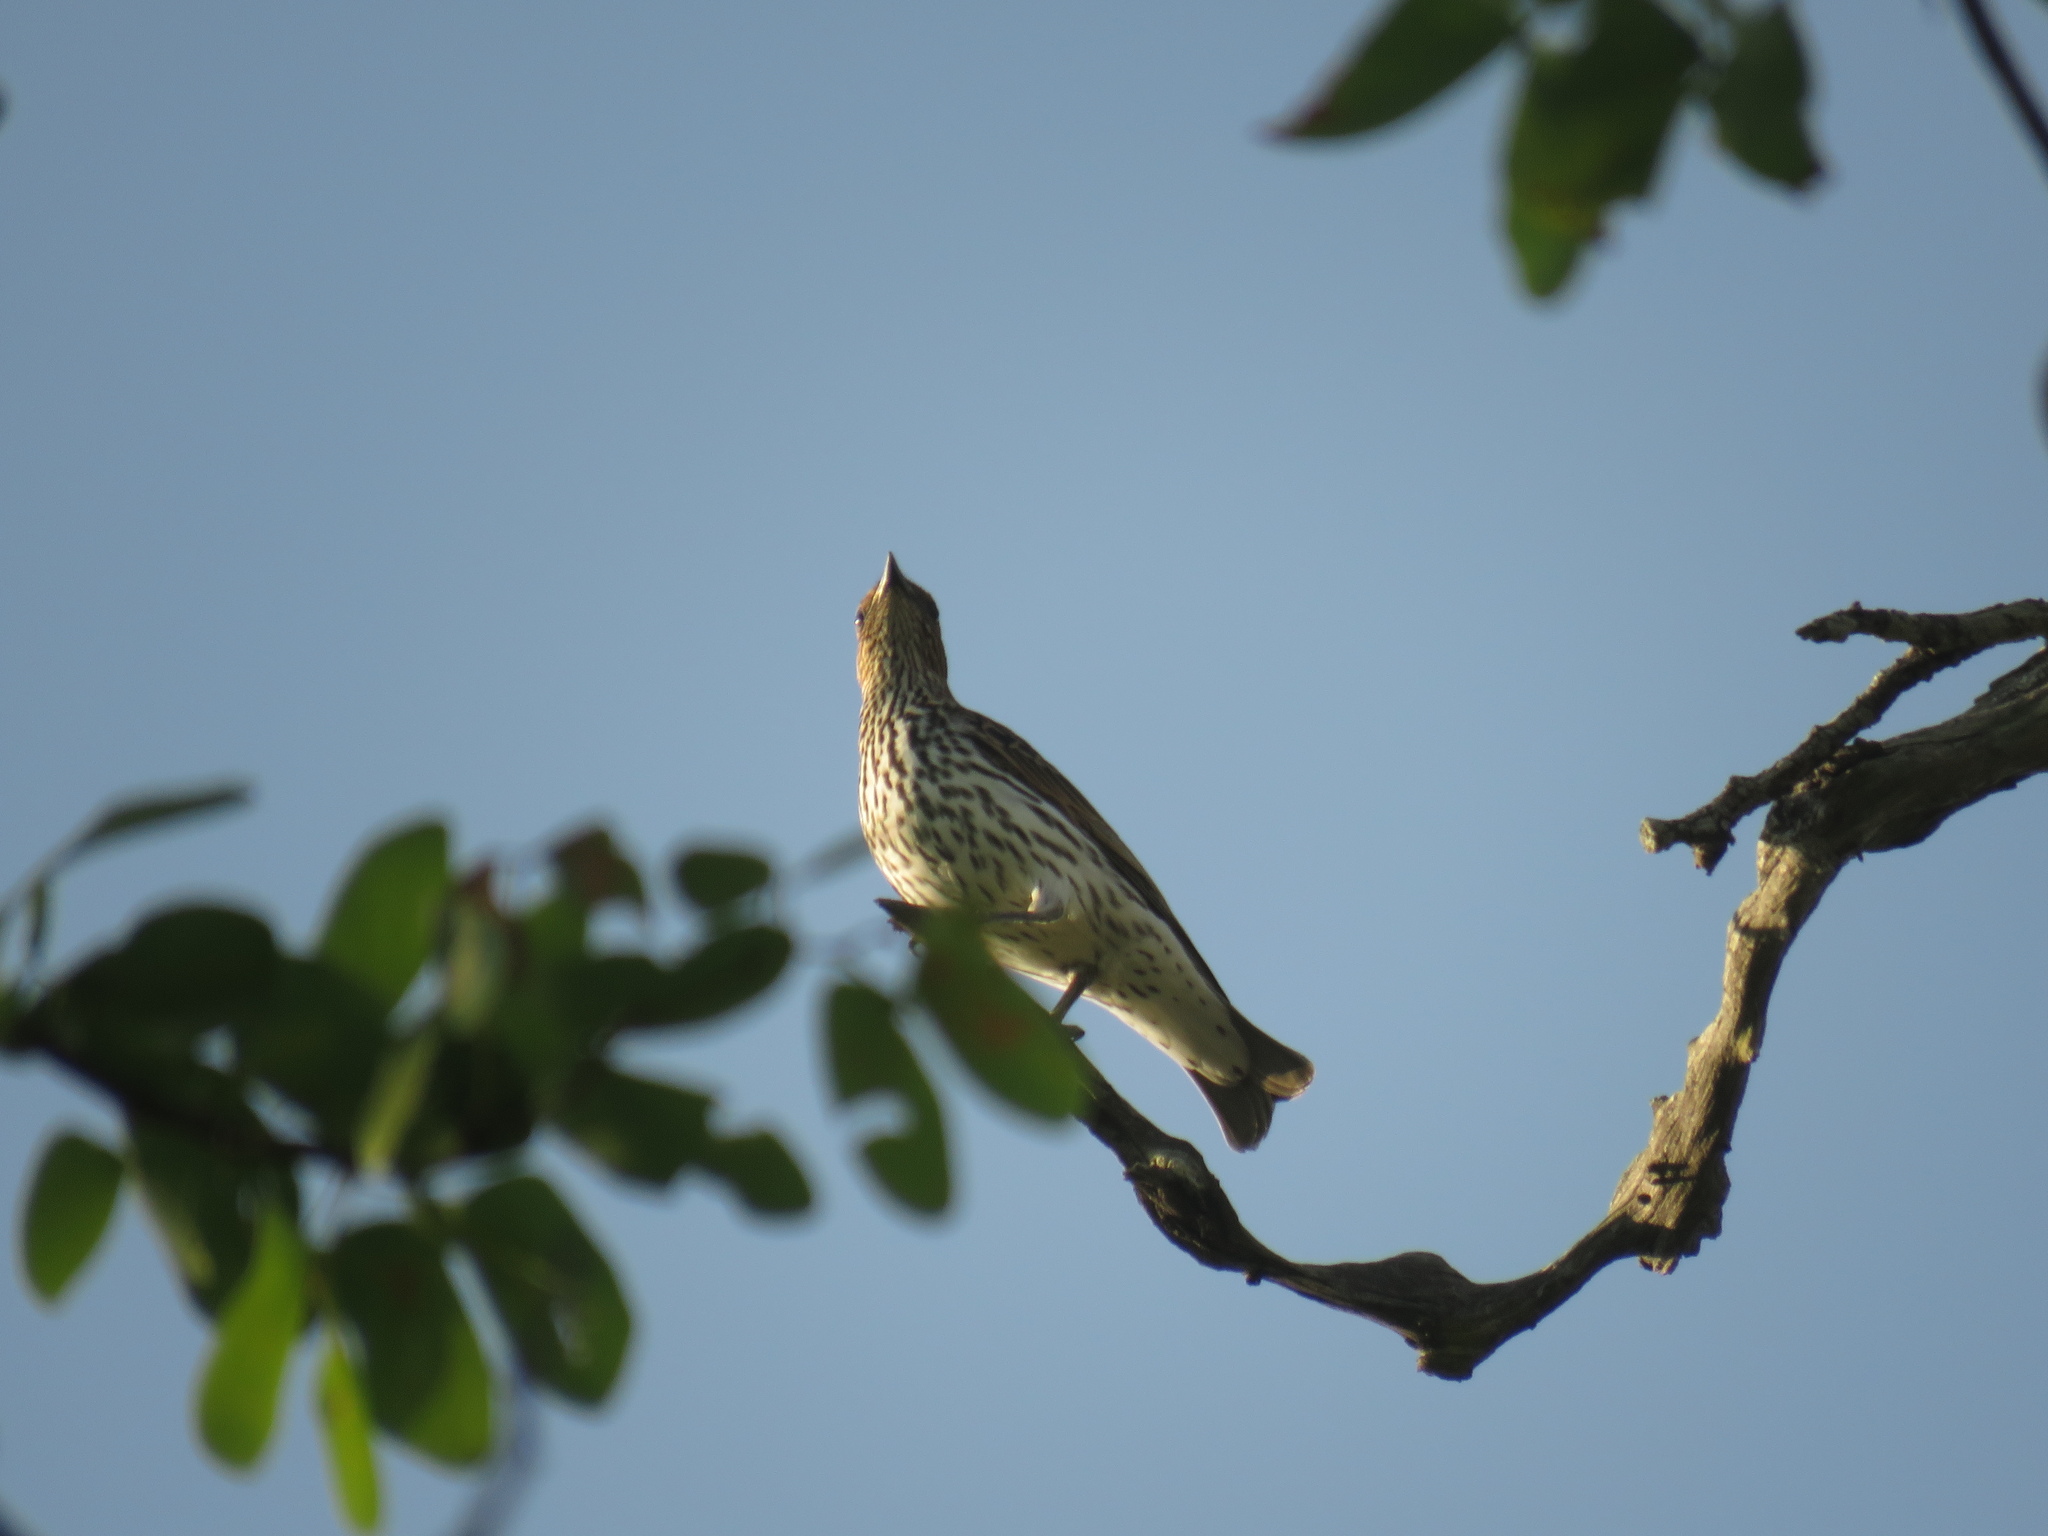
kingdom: Animalia
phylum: Chordata
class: Aves
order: Passeriformes
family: Sturnidae
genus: Cinnyricinclus
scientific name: Cinnyricinclus leucogaster
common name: Violet-backed starling
